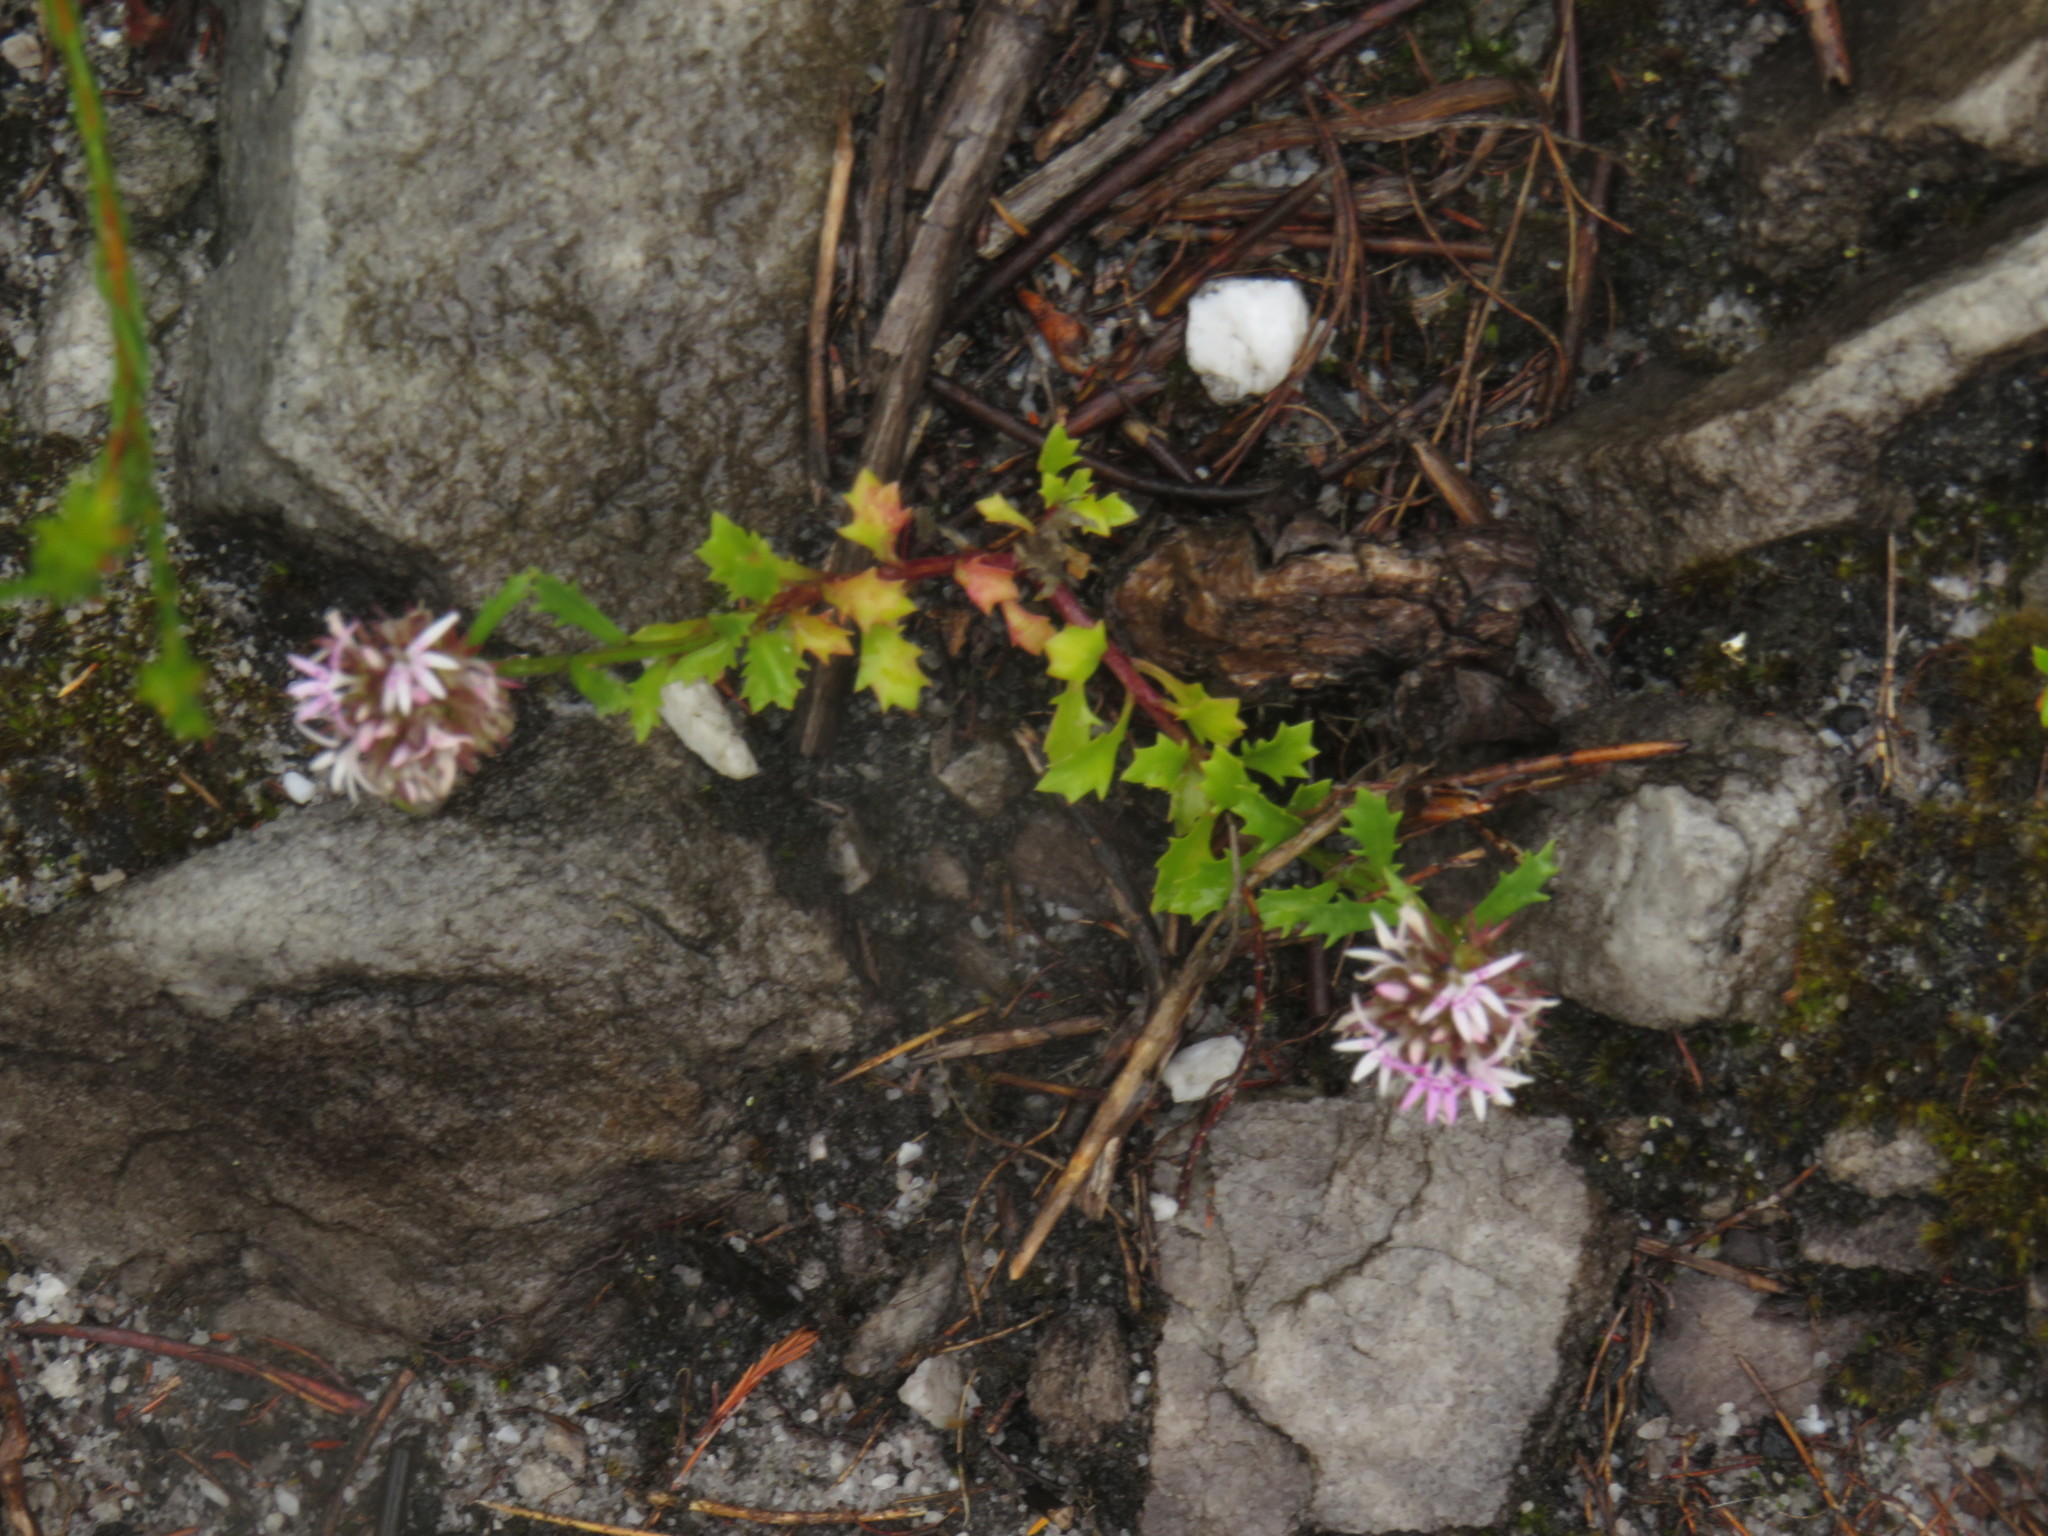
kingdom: Plantae
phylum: Tracheophyta
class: Magnoliopsida
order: Asterales
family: Campanulaceae
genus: Lobelia
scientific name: Lobelia jasionoides
